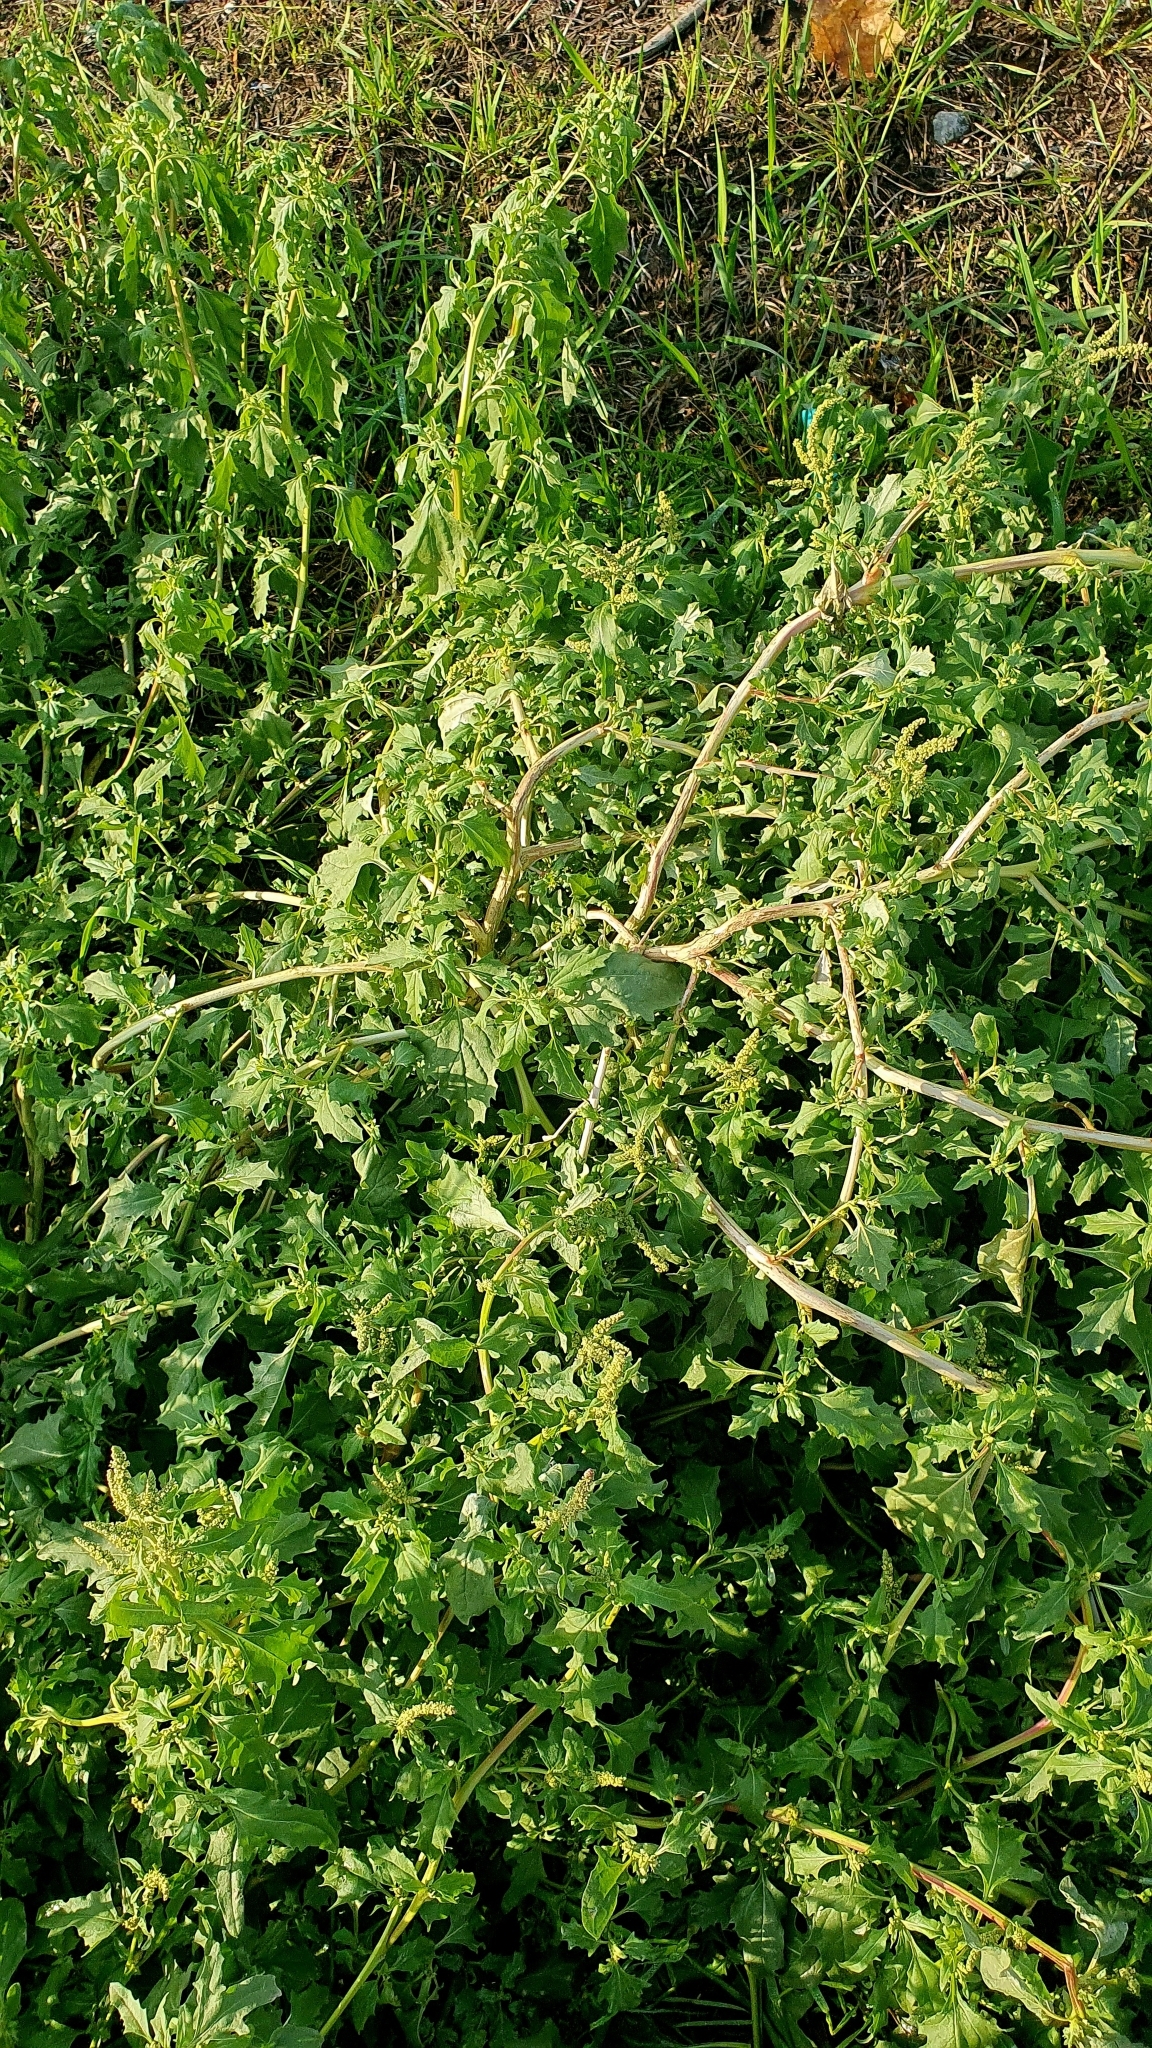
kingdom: Plantae
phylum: Tracheophyta
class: Magnoliopsida
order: Caryophyllales
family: Amaranthaceae
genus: Atriplex
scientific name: Atriplex tatarica
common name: Tatarian orache
